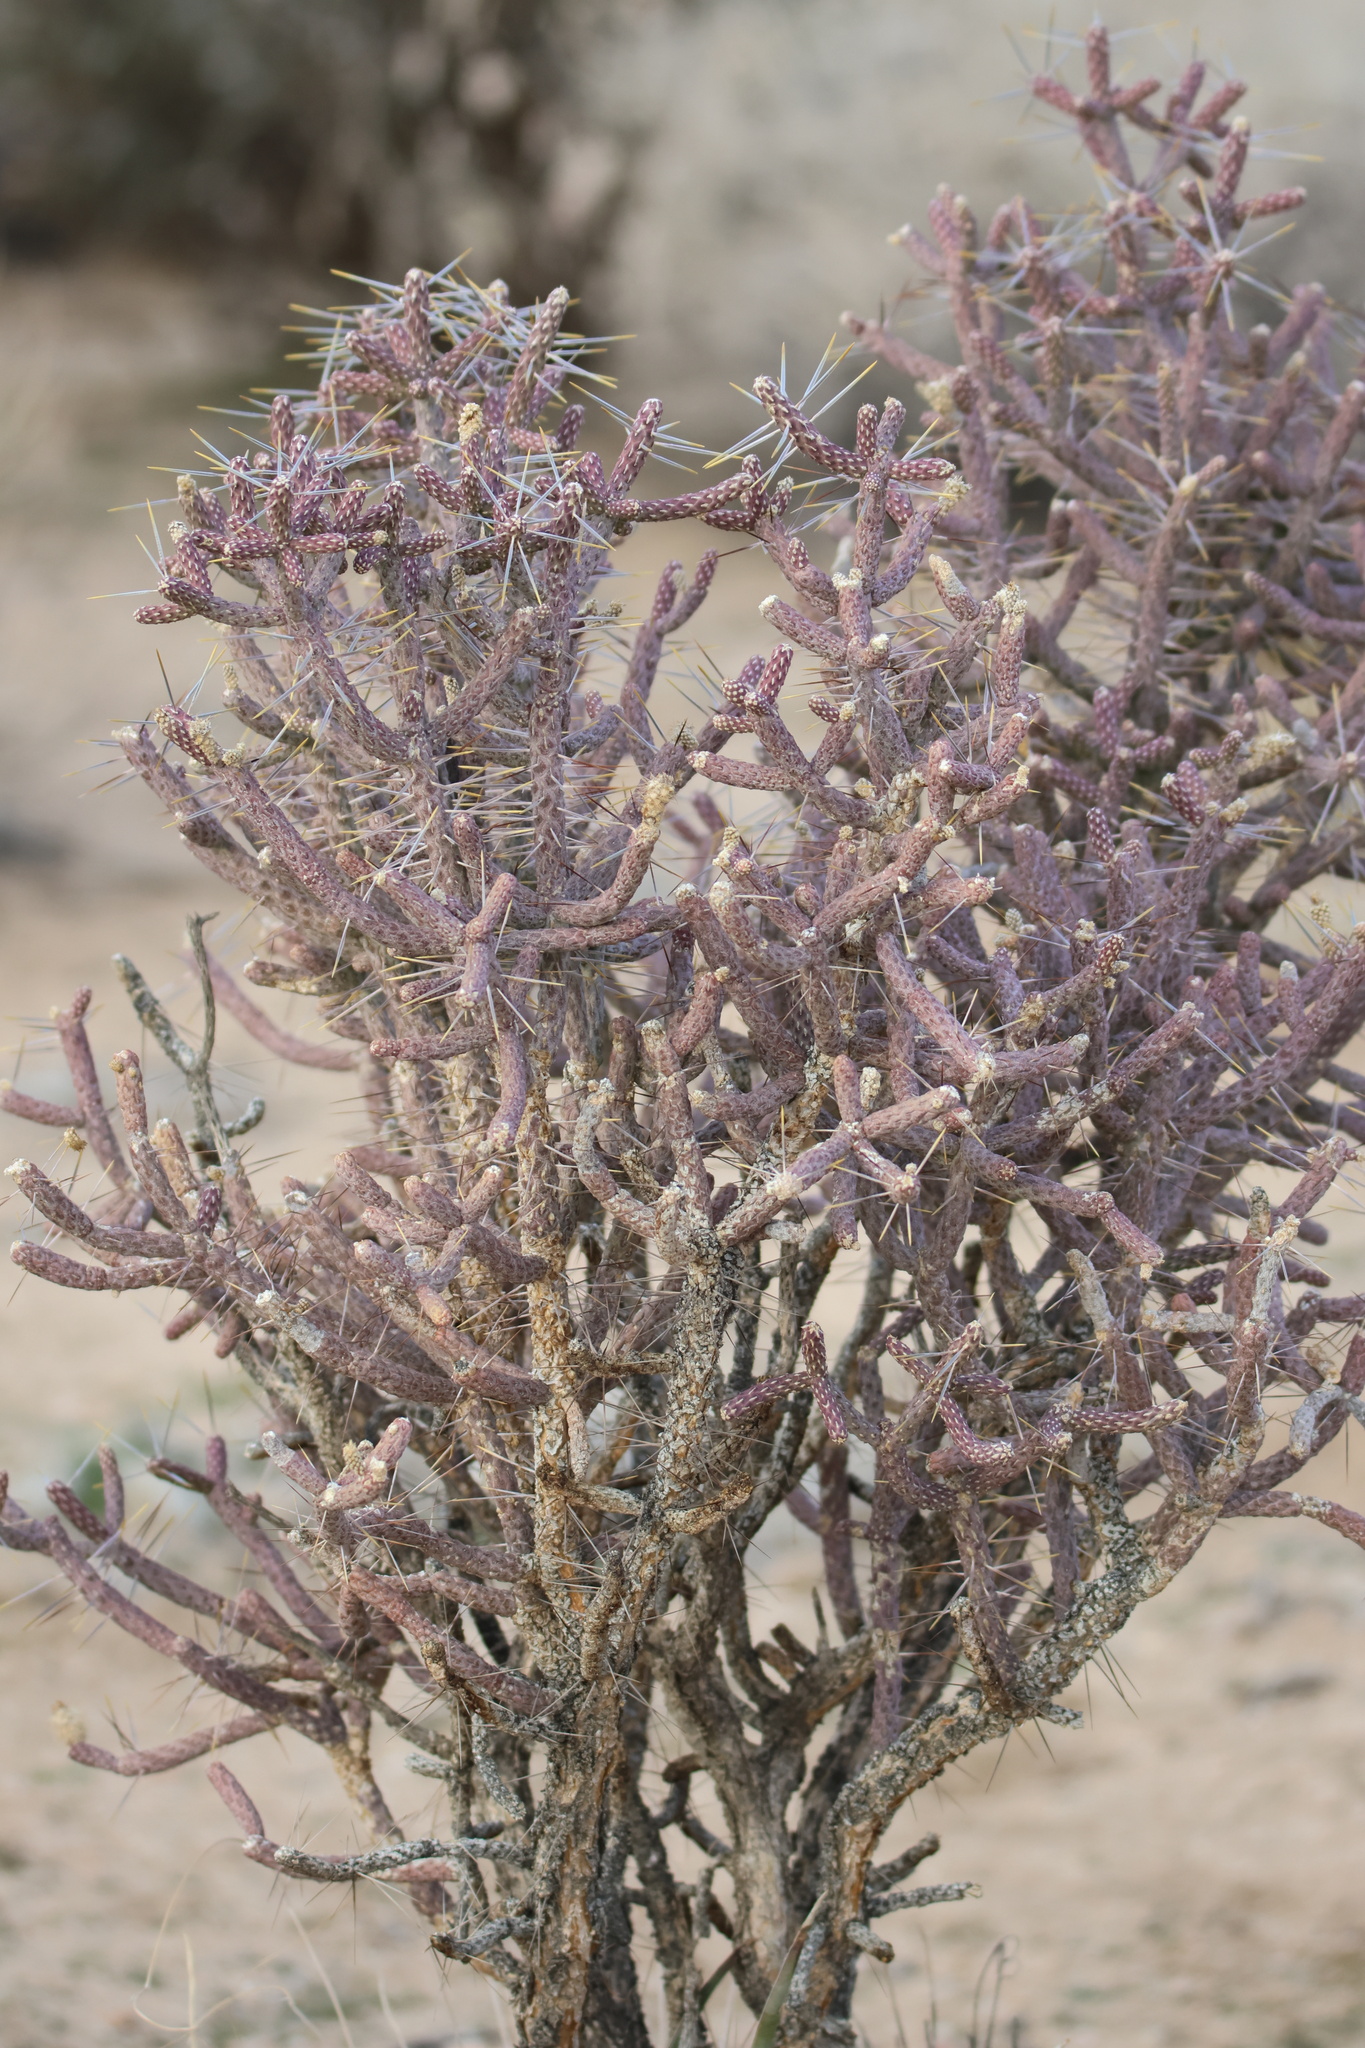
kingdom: Plantae
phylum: Tracheophyta
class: Magnoliopsida
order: Caryophyllales
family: Cactaceae
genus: Cylindropuntia
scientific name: Cylindropuntia ramosissima
